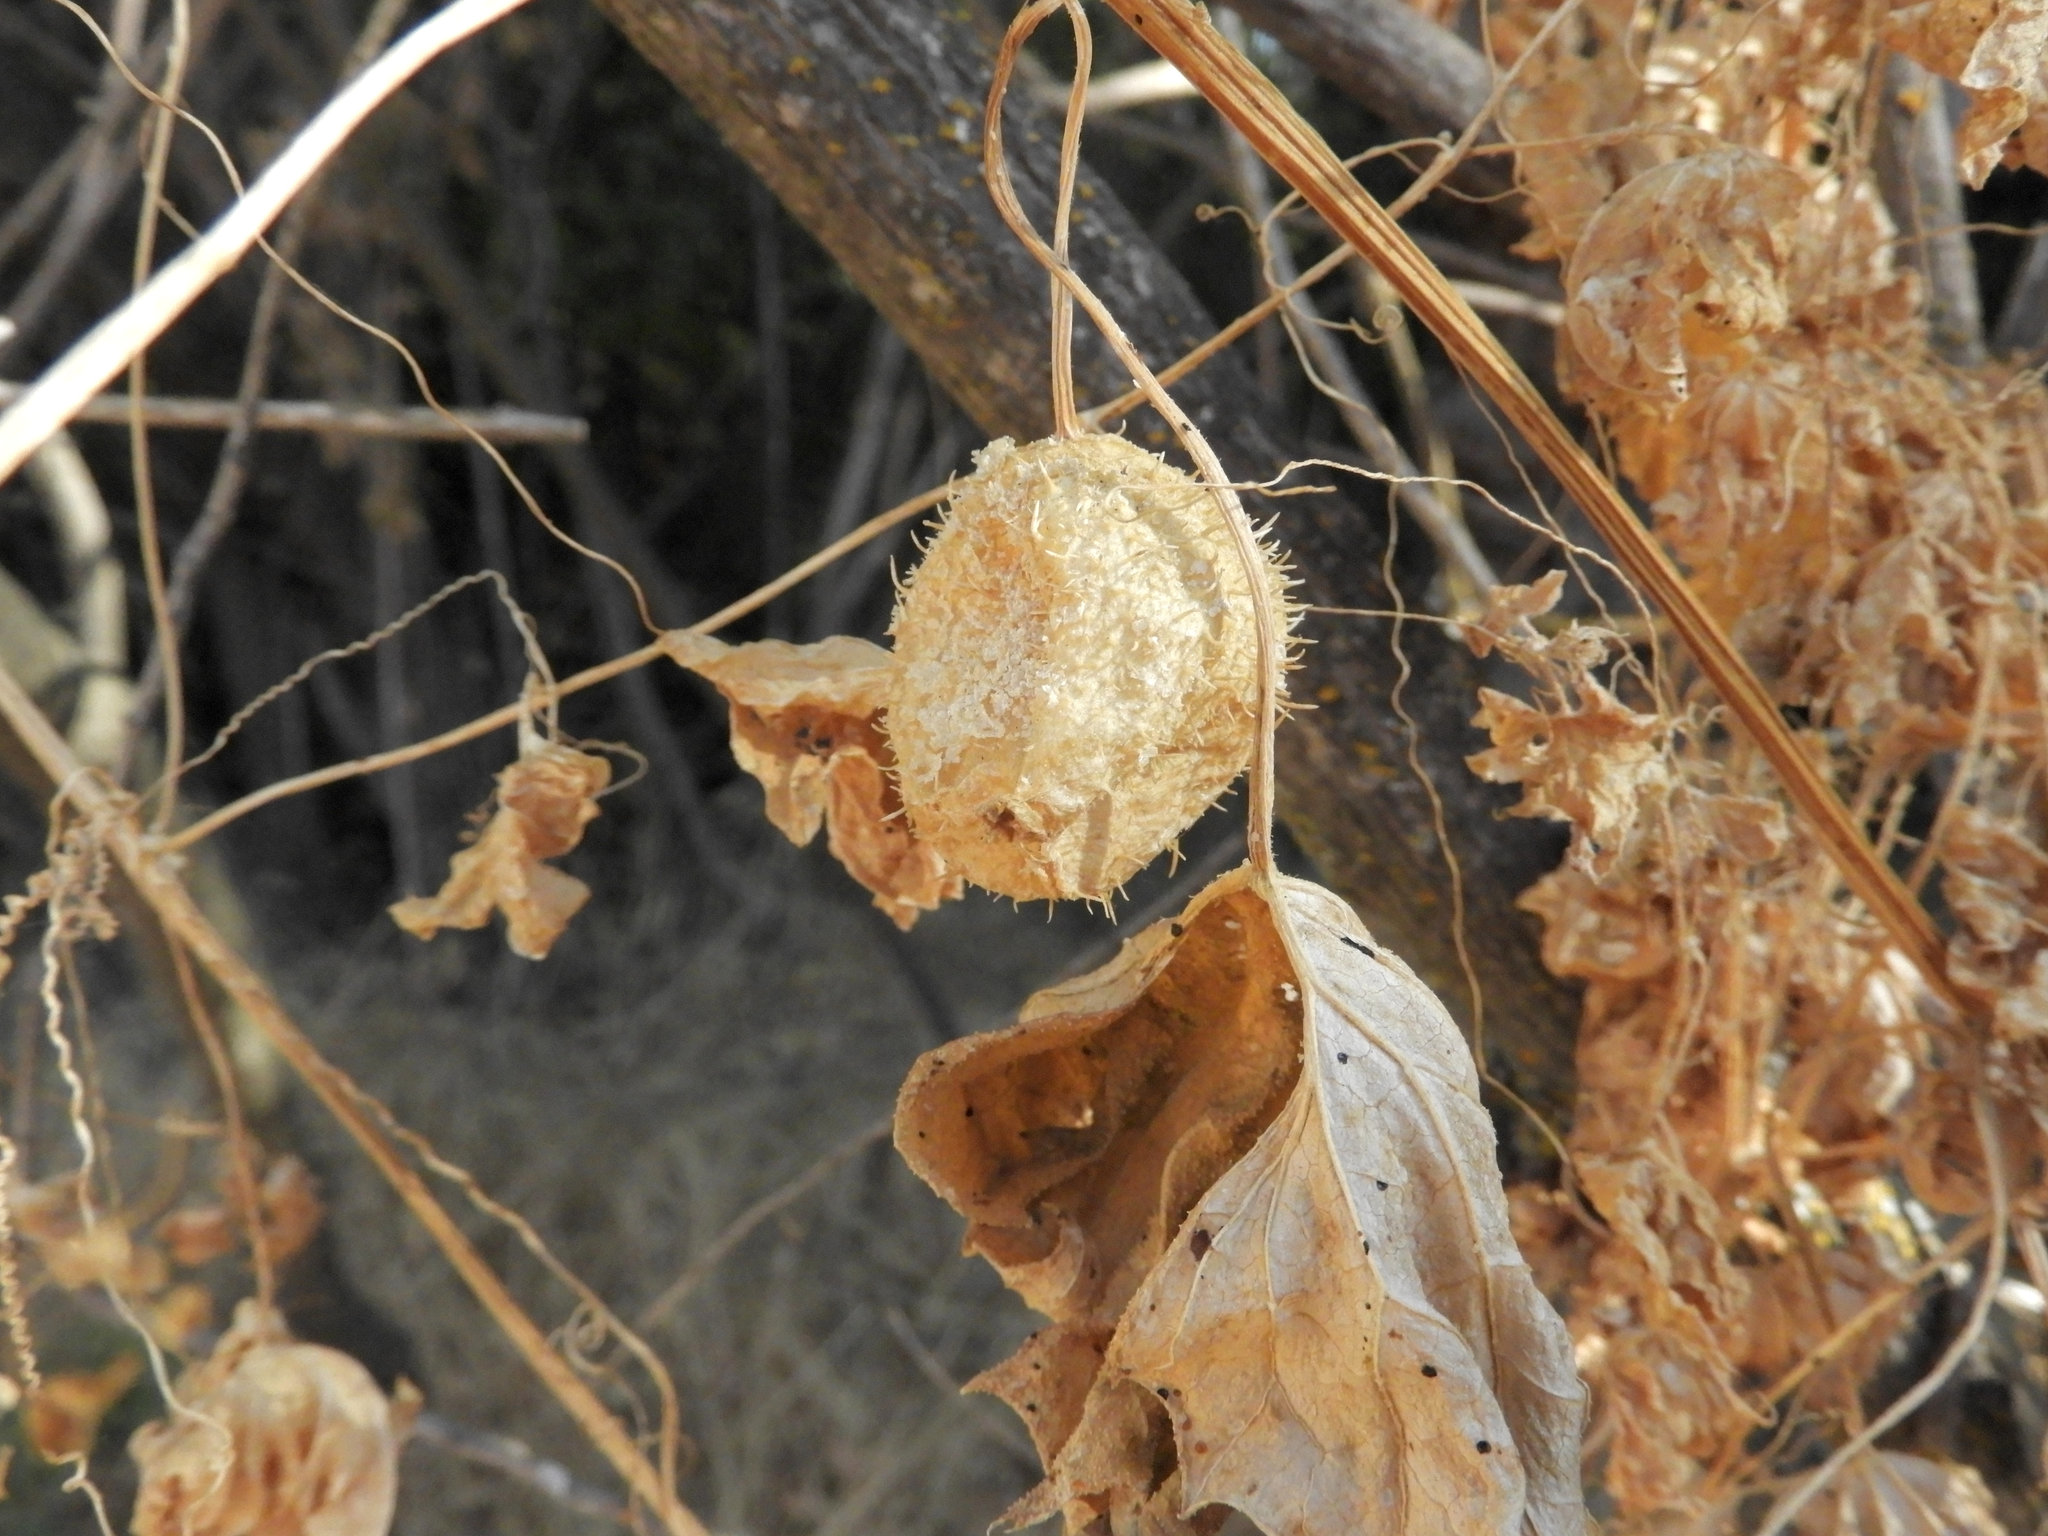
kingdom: Plantae
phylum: Tracheophyta
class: Magnoliopsida
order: Cucurbitales
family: Cucurbitaceae
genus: Marah
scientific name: Marah fabacea
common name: California manroot
